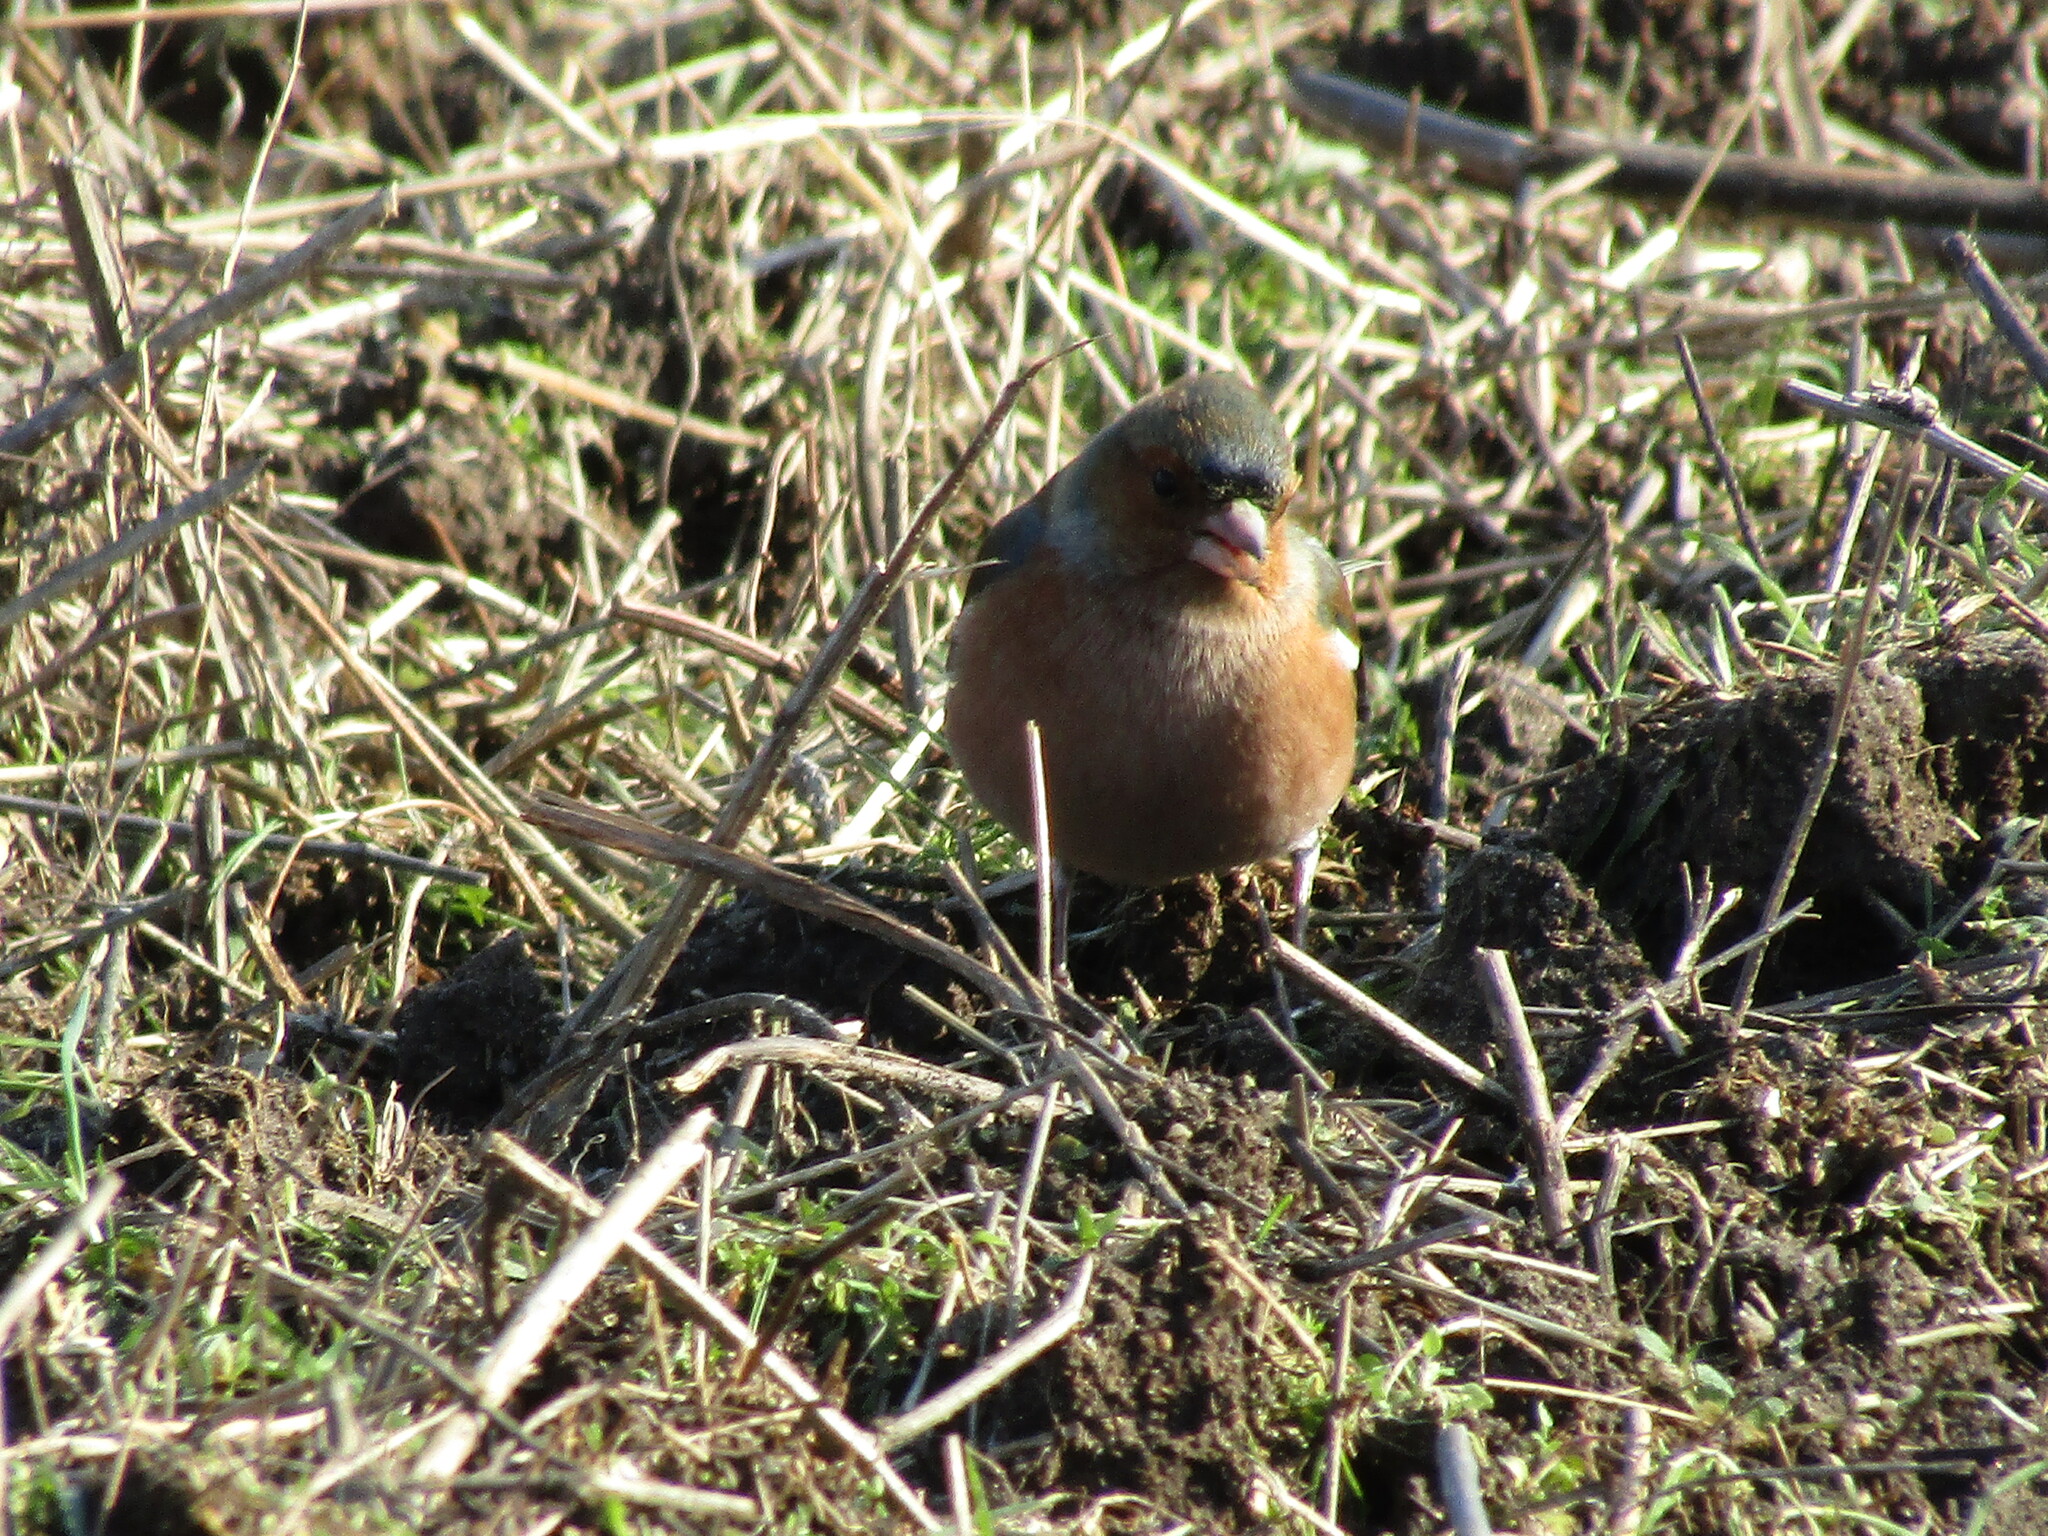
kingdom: Animalia
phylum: Chordata
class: Aves
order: Passeriformes
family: Fringillidae
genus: Fringilla
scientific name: Fringilla coelebs
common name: Common chaffinch
